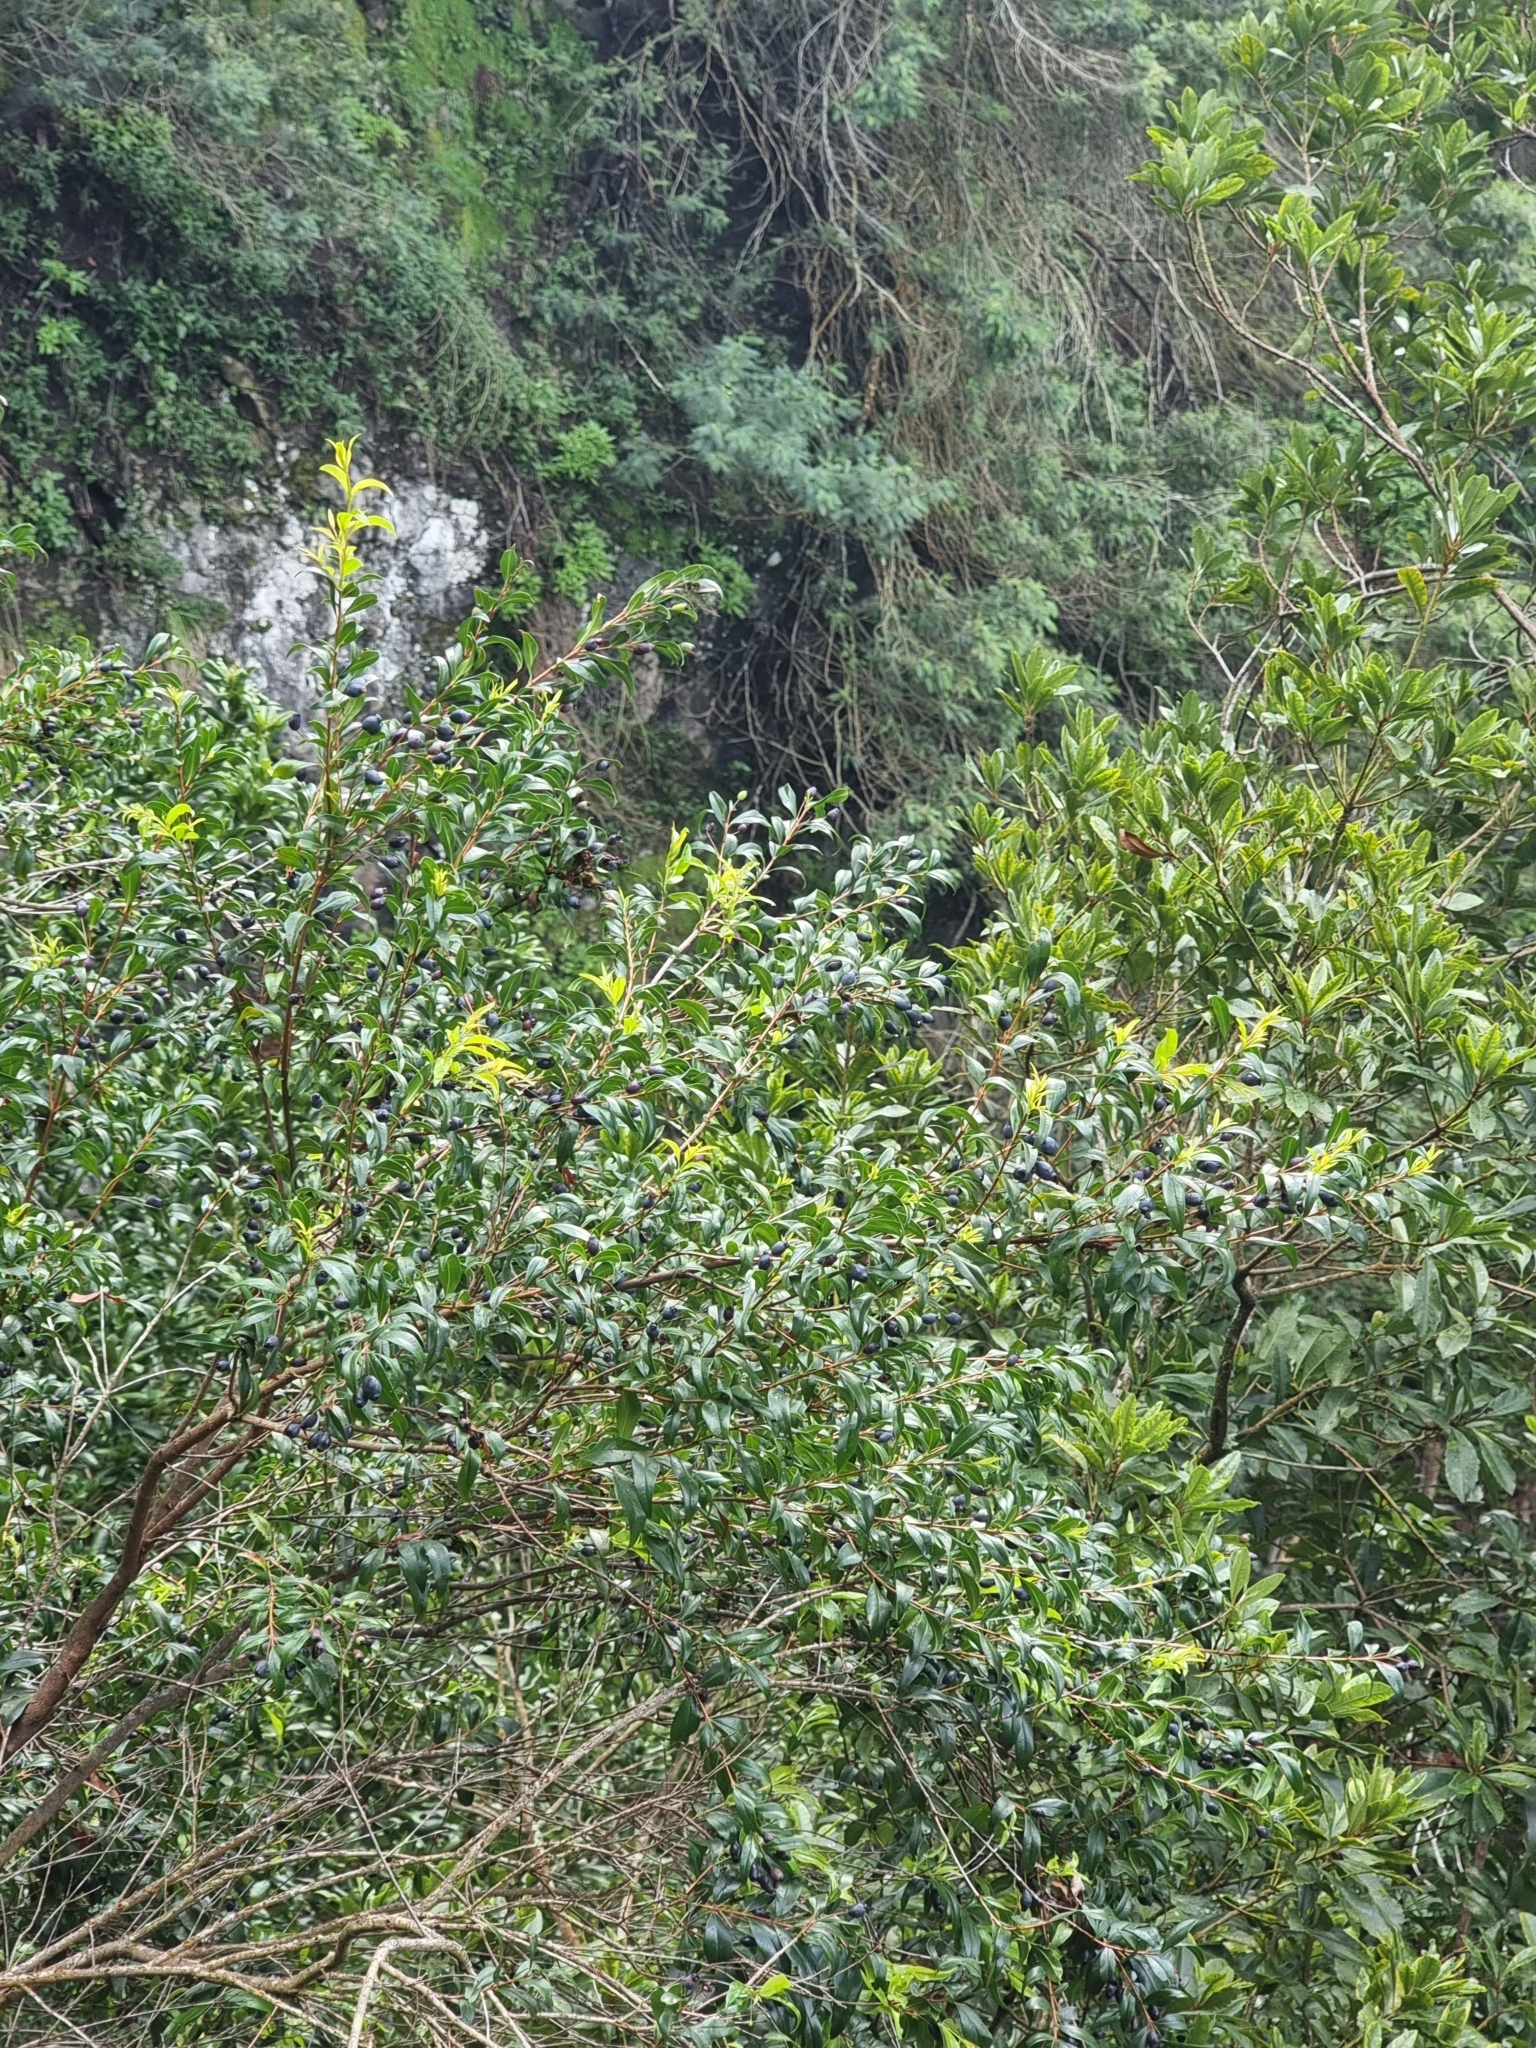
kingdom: Plantae
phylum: Tracheophyta
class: Magnoliopsida
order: Myrtales
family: Myrtaceae
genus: Myrtus
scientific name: Myrtus communis
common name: Myrtle
